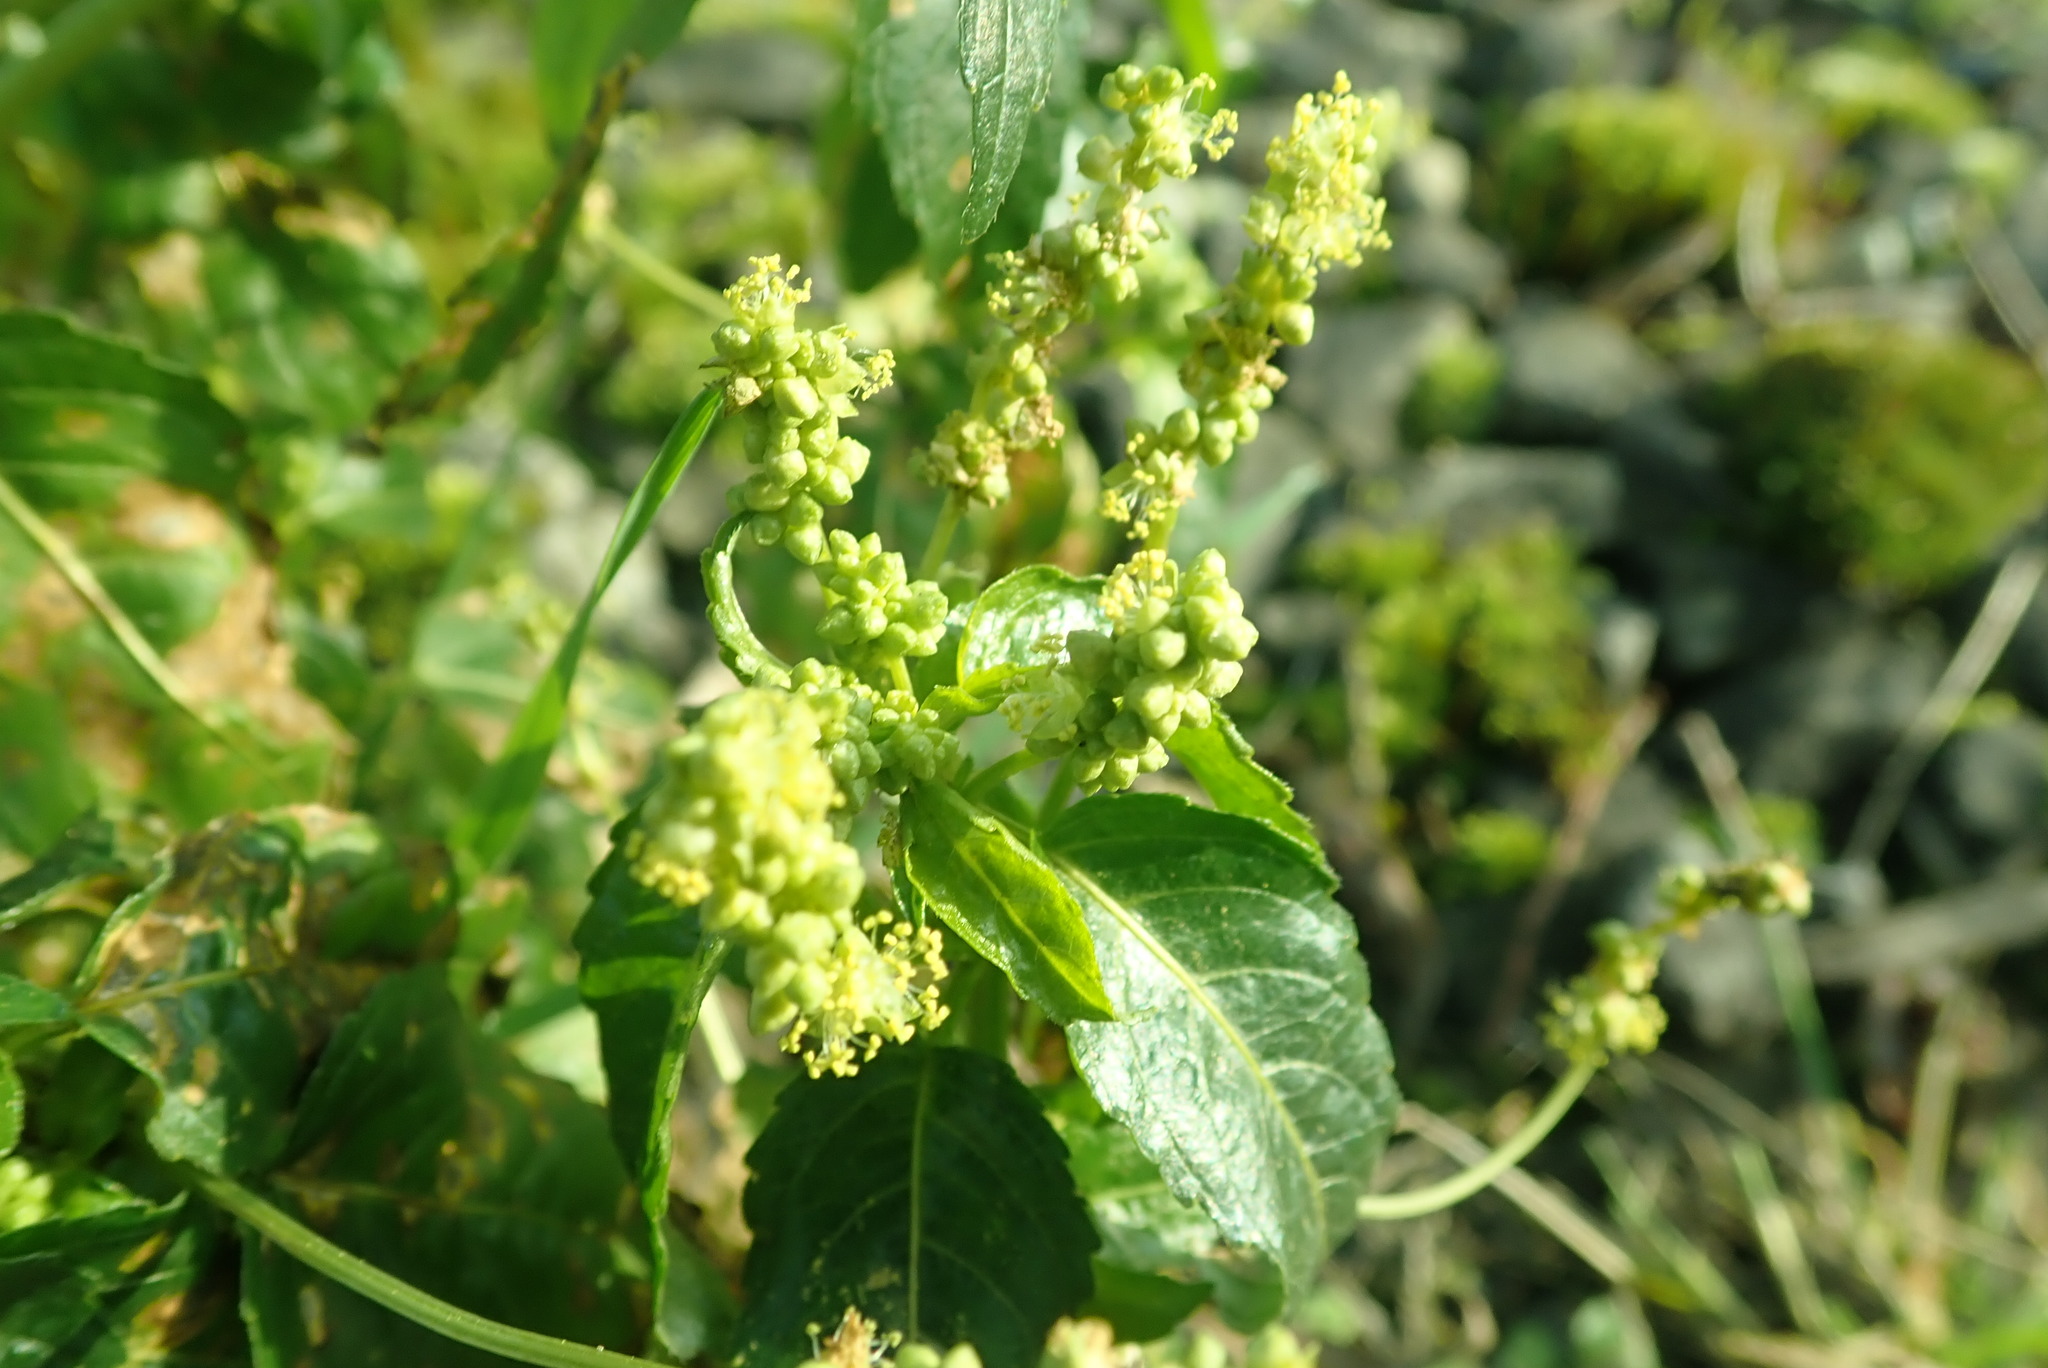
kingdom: Plantae
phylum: Tracheophyta
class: Magnoliopsida
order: Malpighiales
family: Euphorbiaceae
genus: Mercurialis
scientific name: Mercurialis annua
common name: Annual mercury
